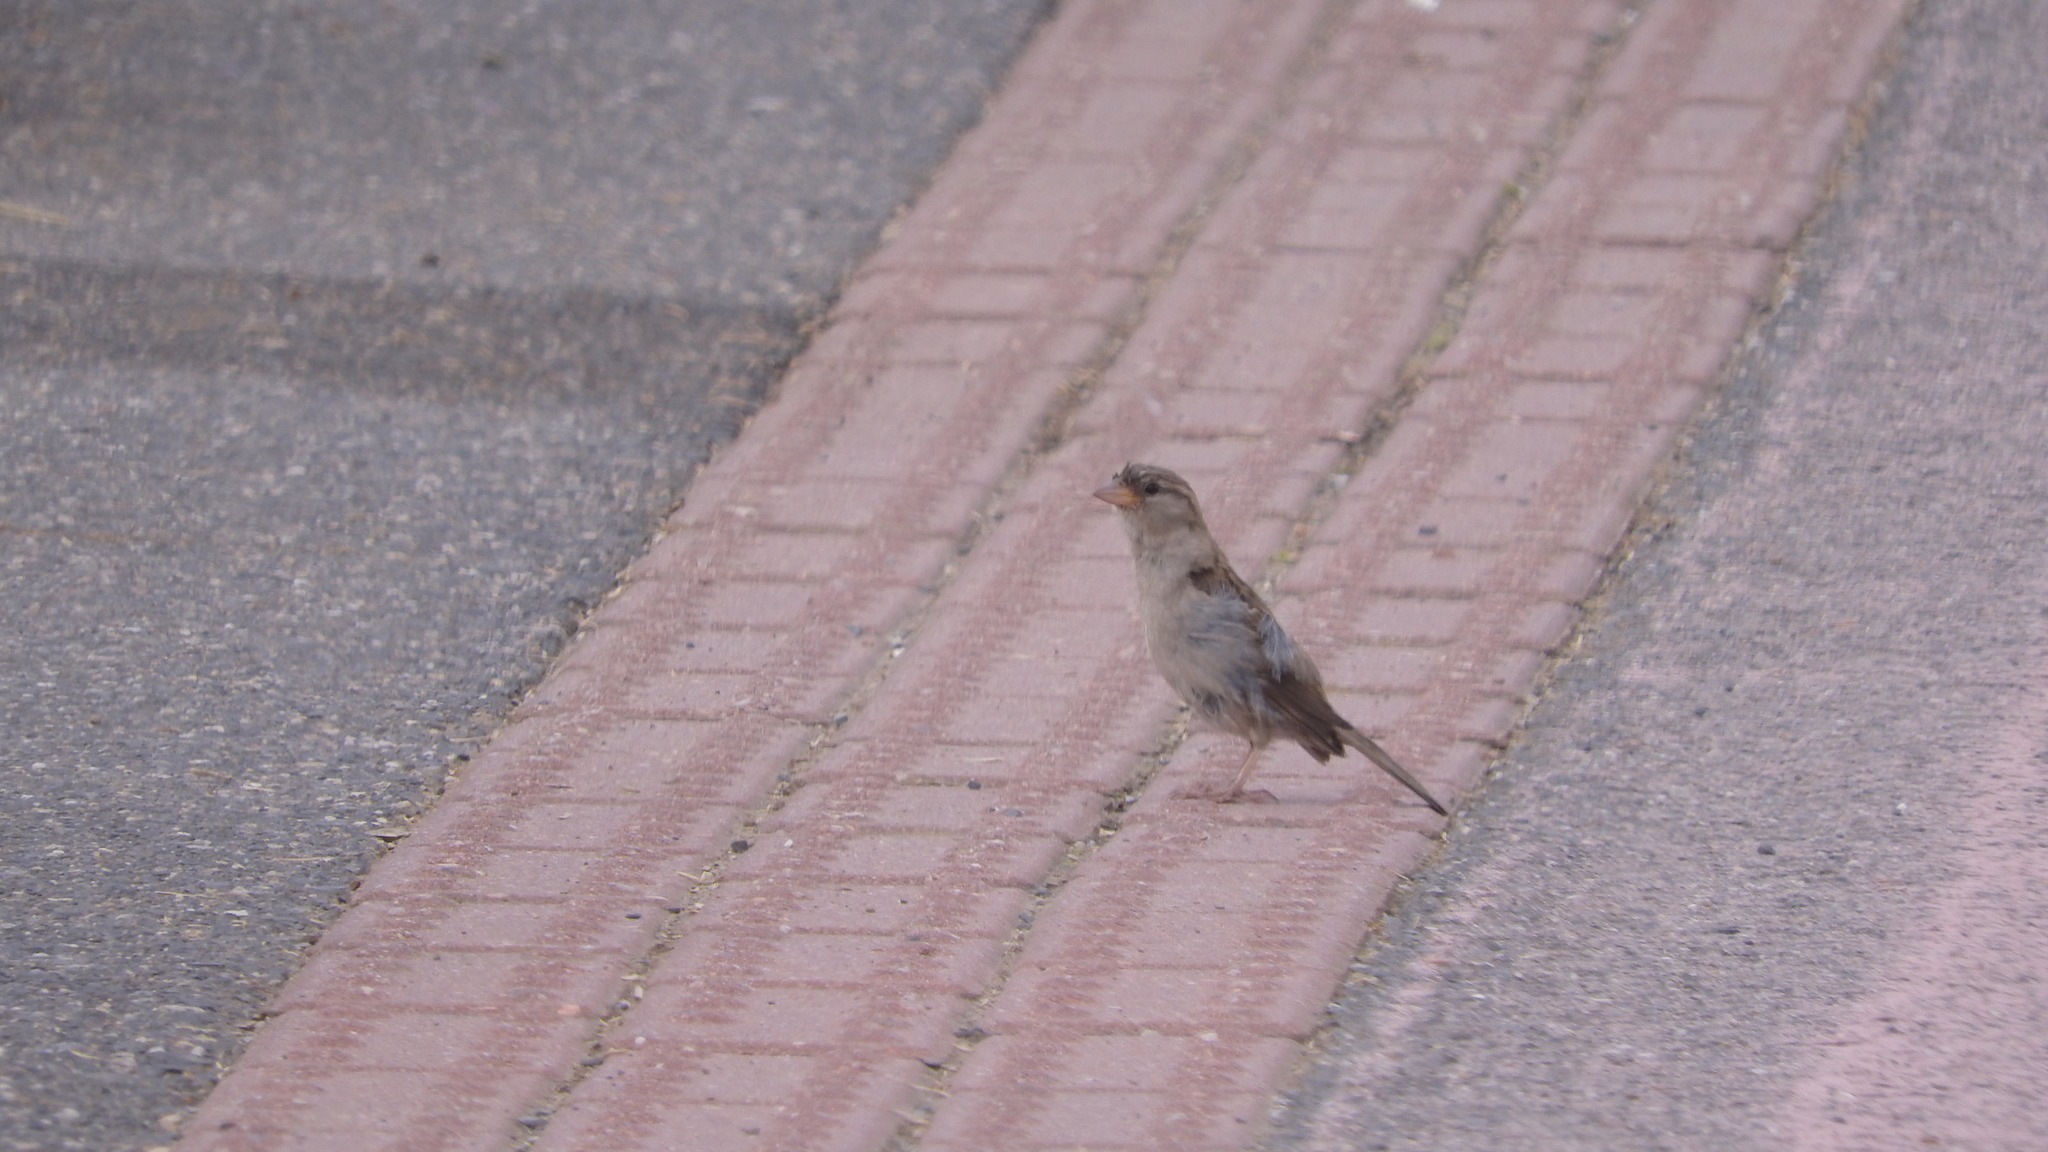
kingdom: Animalia
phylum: Chordata
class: Aves
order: Passeriformes
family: Passeridae
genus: Passer
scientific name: Passer domesticus
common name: House sparrow
